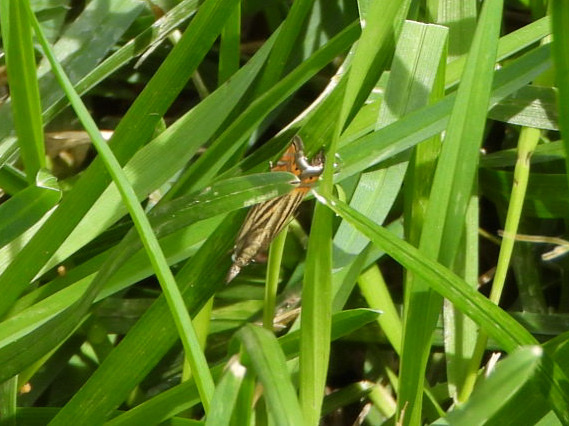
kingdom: Animalia
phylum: Arthropoda
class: Insecta
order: Lepidoptera
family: Crambidae
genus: Chrysoteuchia
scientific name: Chrysoteuchia topiarius
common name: Topiary grass-veneer
